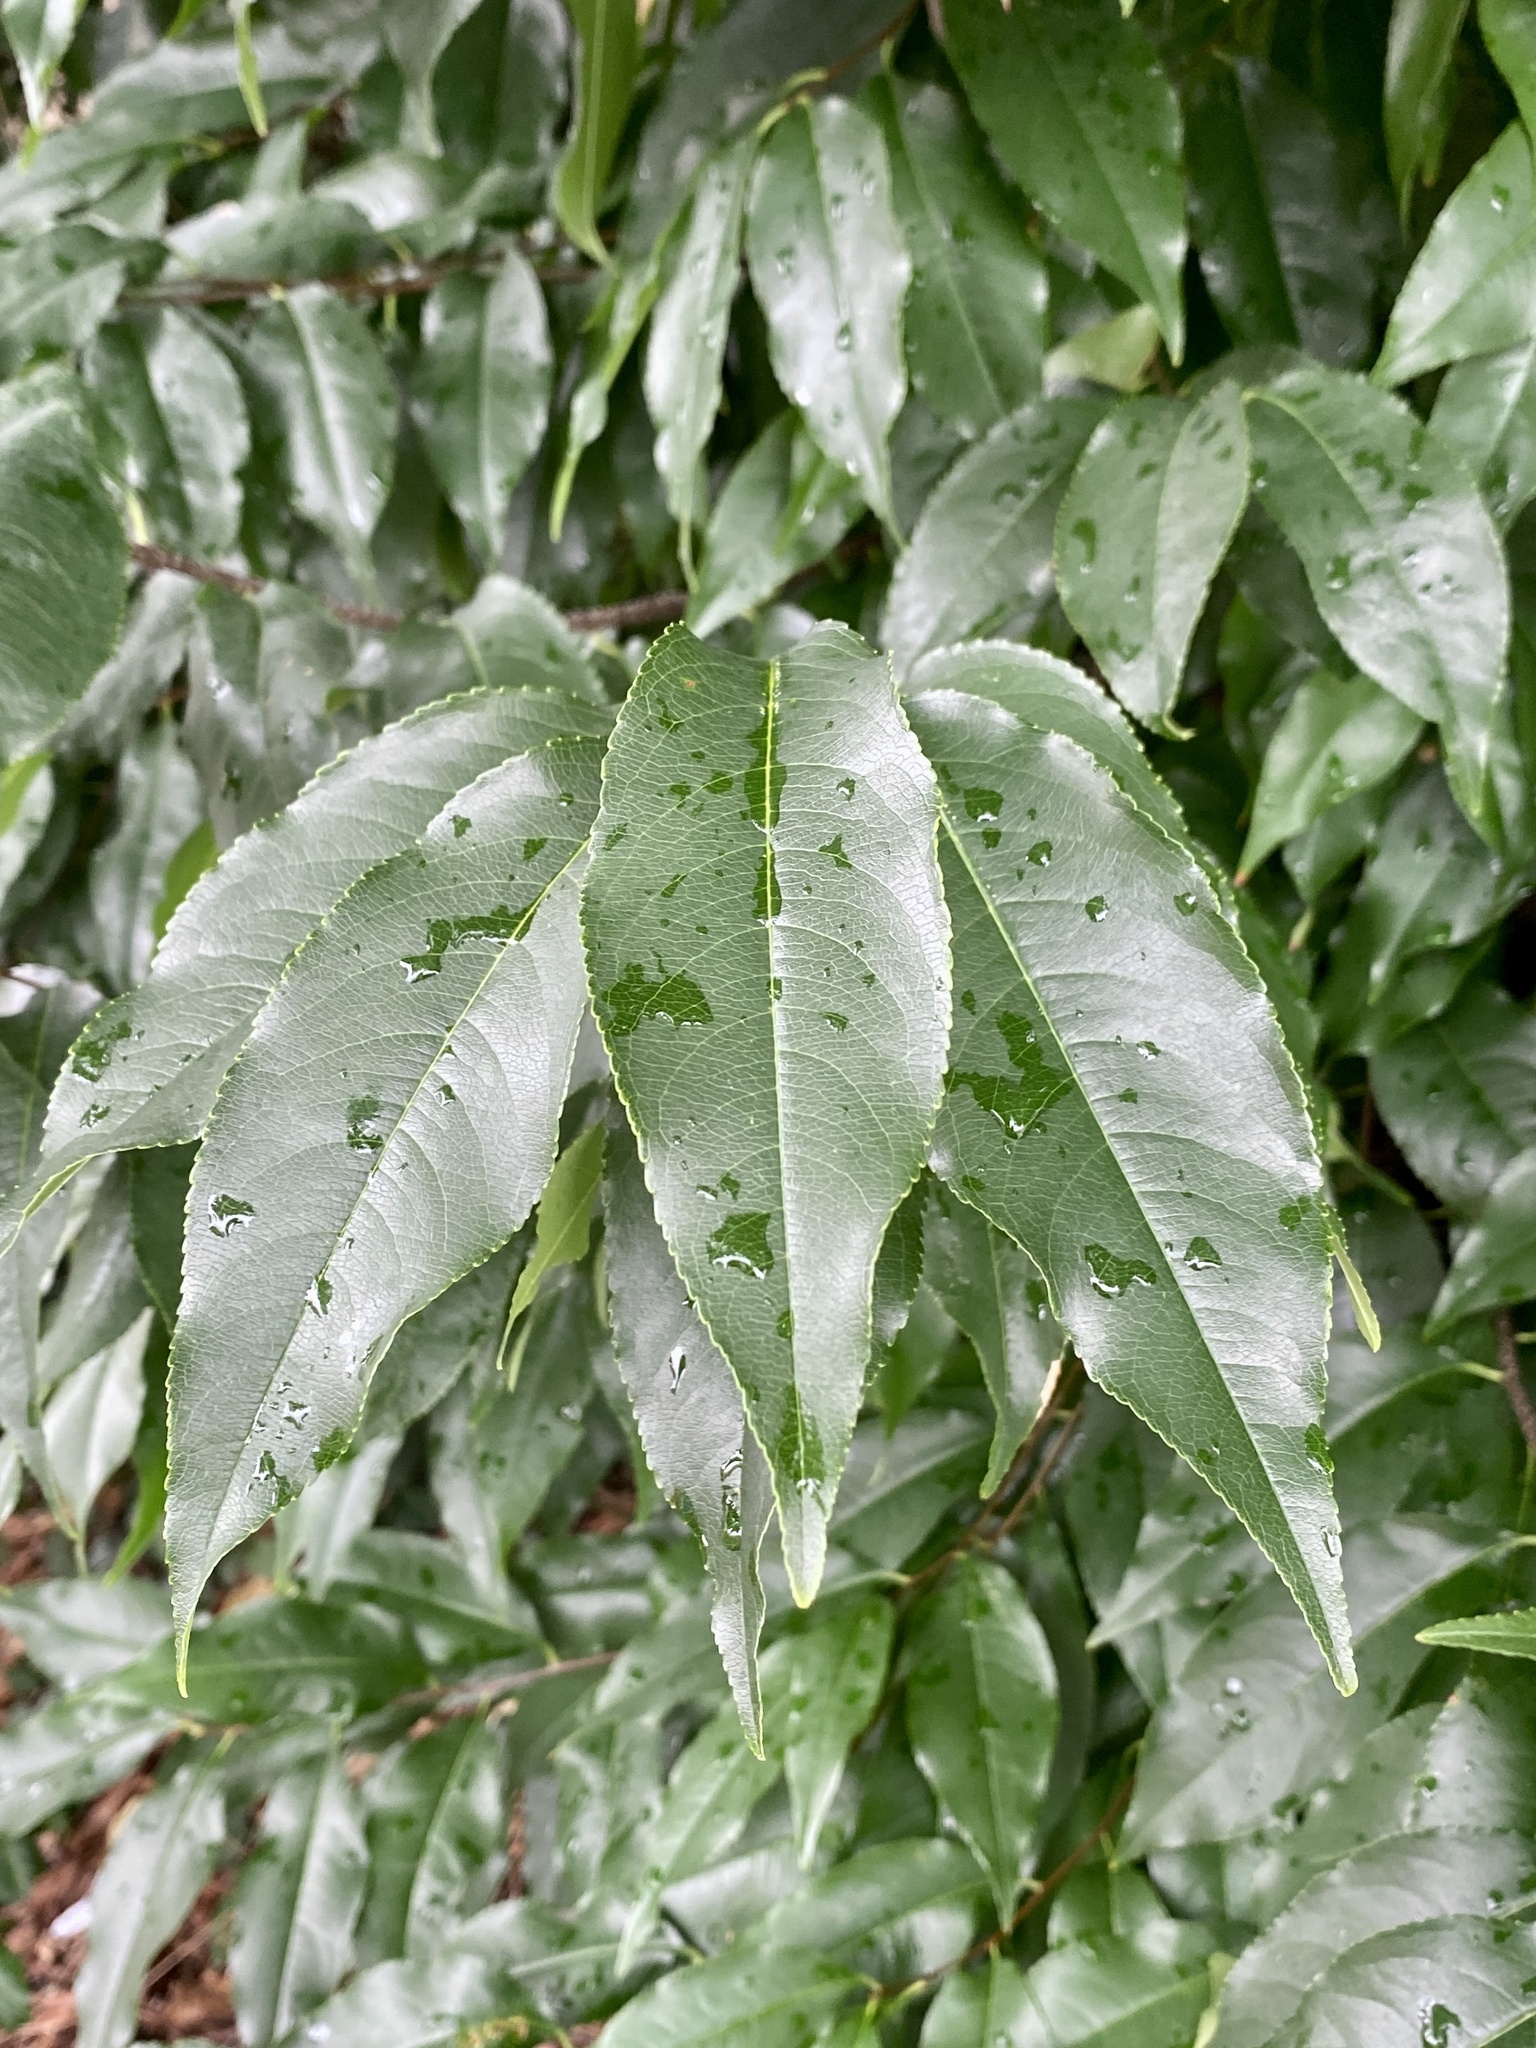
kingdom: Plantae
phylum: Tracheophyta
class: Magnoliopsida
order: Rosales
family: Rosaceae
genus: Prunus
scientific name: Prunus serotina
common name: Black cherry
